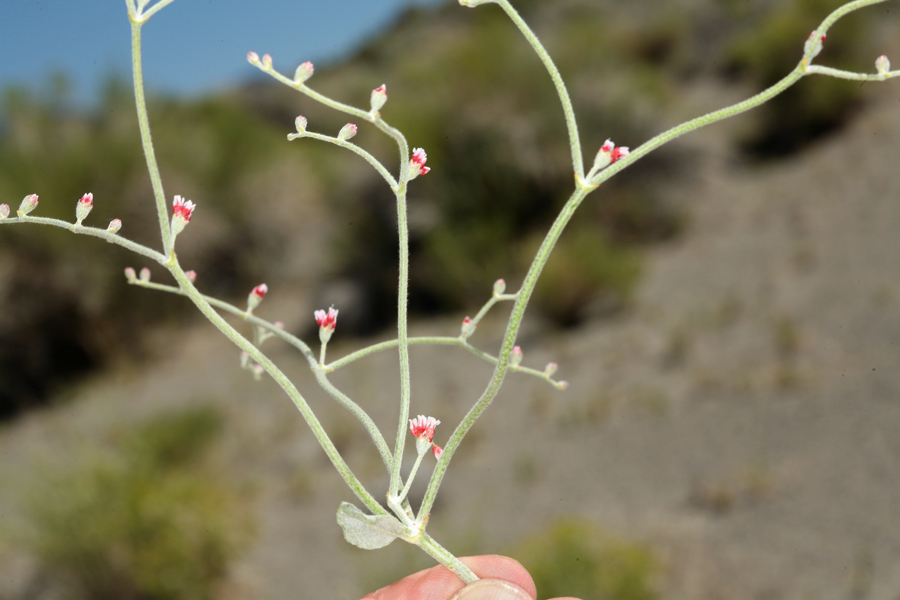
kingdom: Plantae
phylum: Tracheophyta
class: Magnoliopsida
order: Caryophyllales
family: Polygonaceae
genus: Eriogonum
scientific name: Eriogonum nummulare
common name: Kearney wild buckwheat
